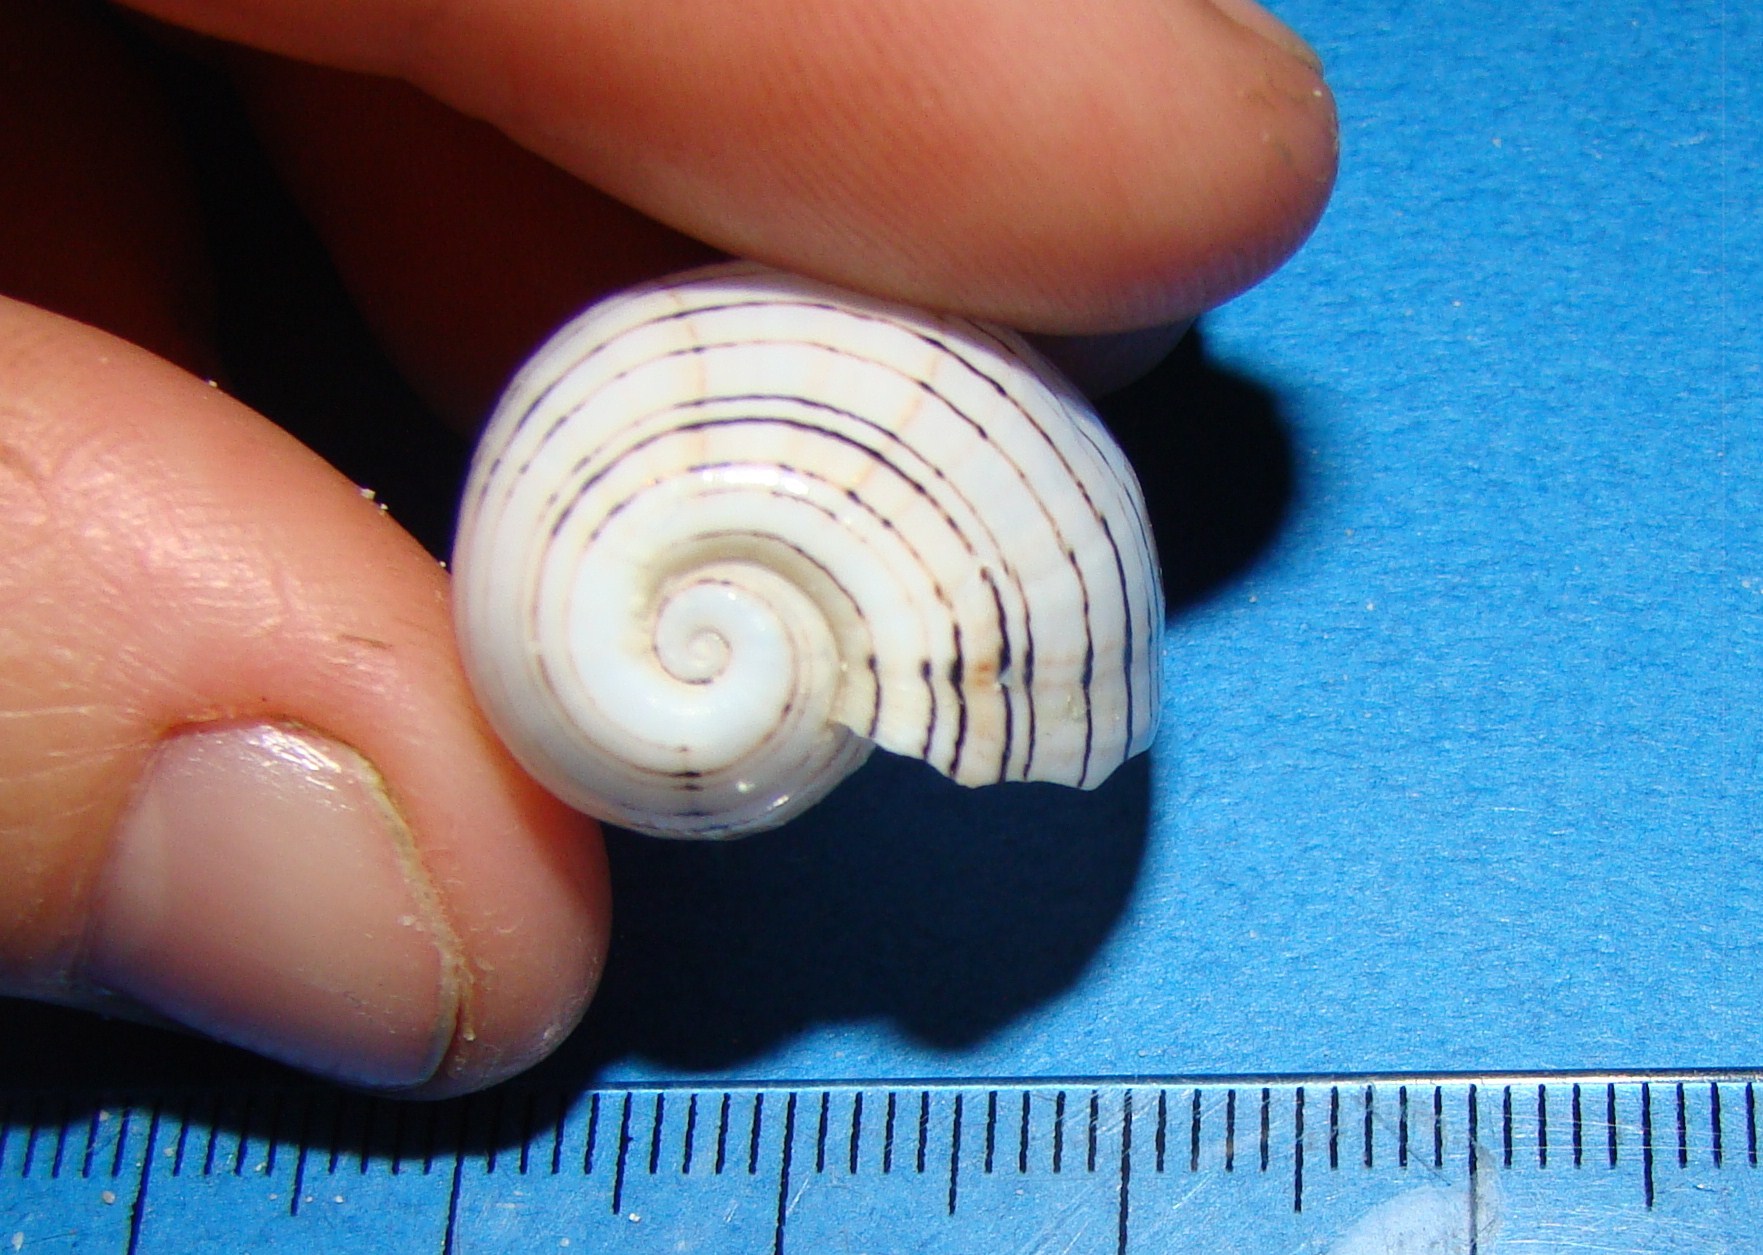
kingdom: Animalia
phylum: Mollusca
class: Gastropoda
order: Cephalaspidea
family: Aplustridae
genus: Hydatina
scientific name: Hydatina physis
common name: Brown-line paperbubble
